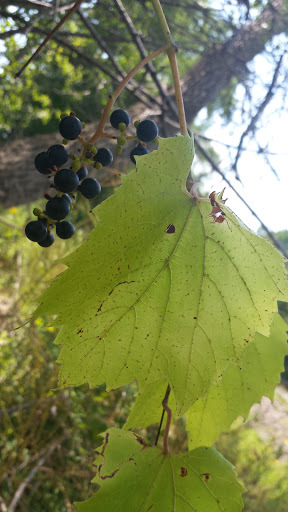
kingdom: Plantae
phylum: Tracheophyta
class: Magnoliopsida
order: Vitales
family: Vitaceae
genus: Vitis
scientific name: Vitis riparia
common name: Frost grape
